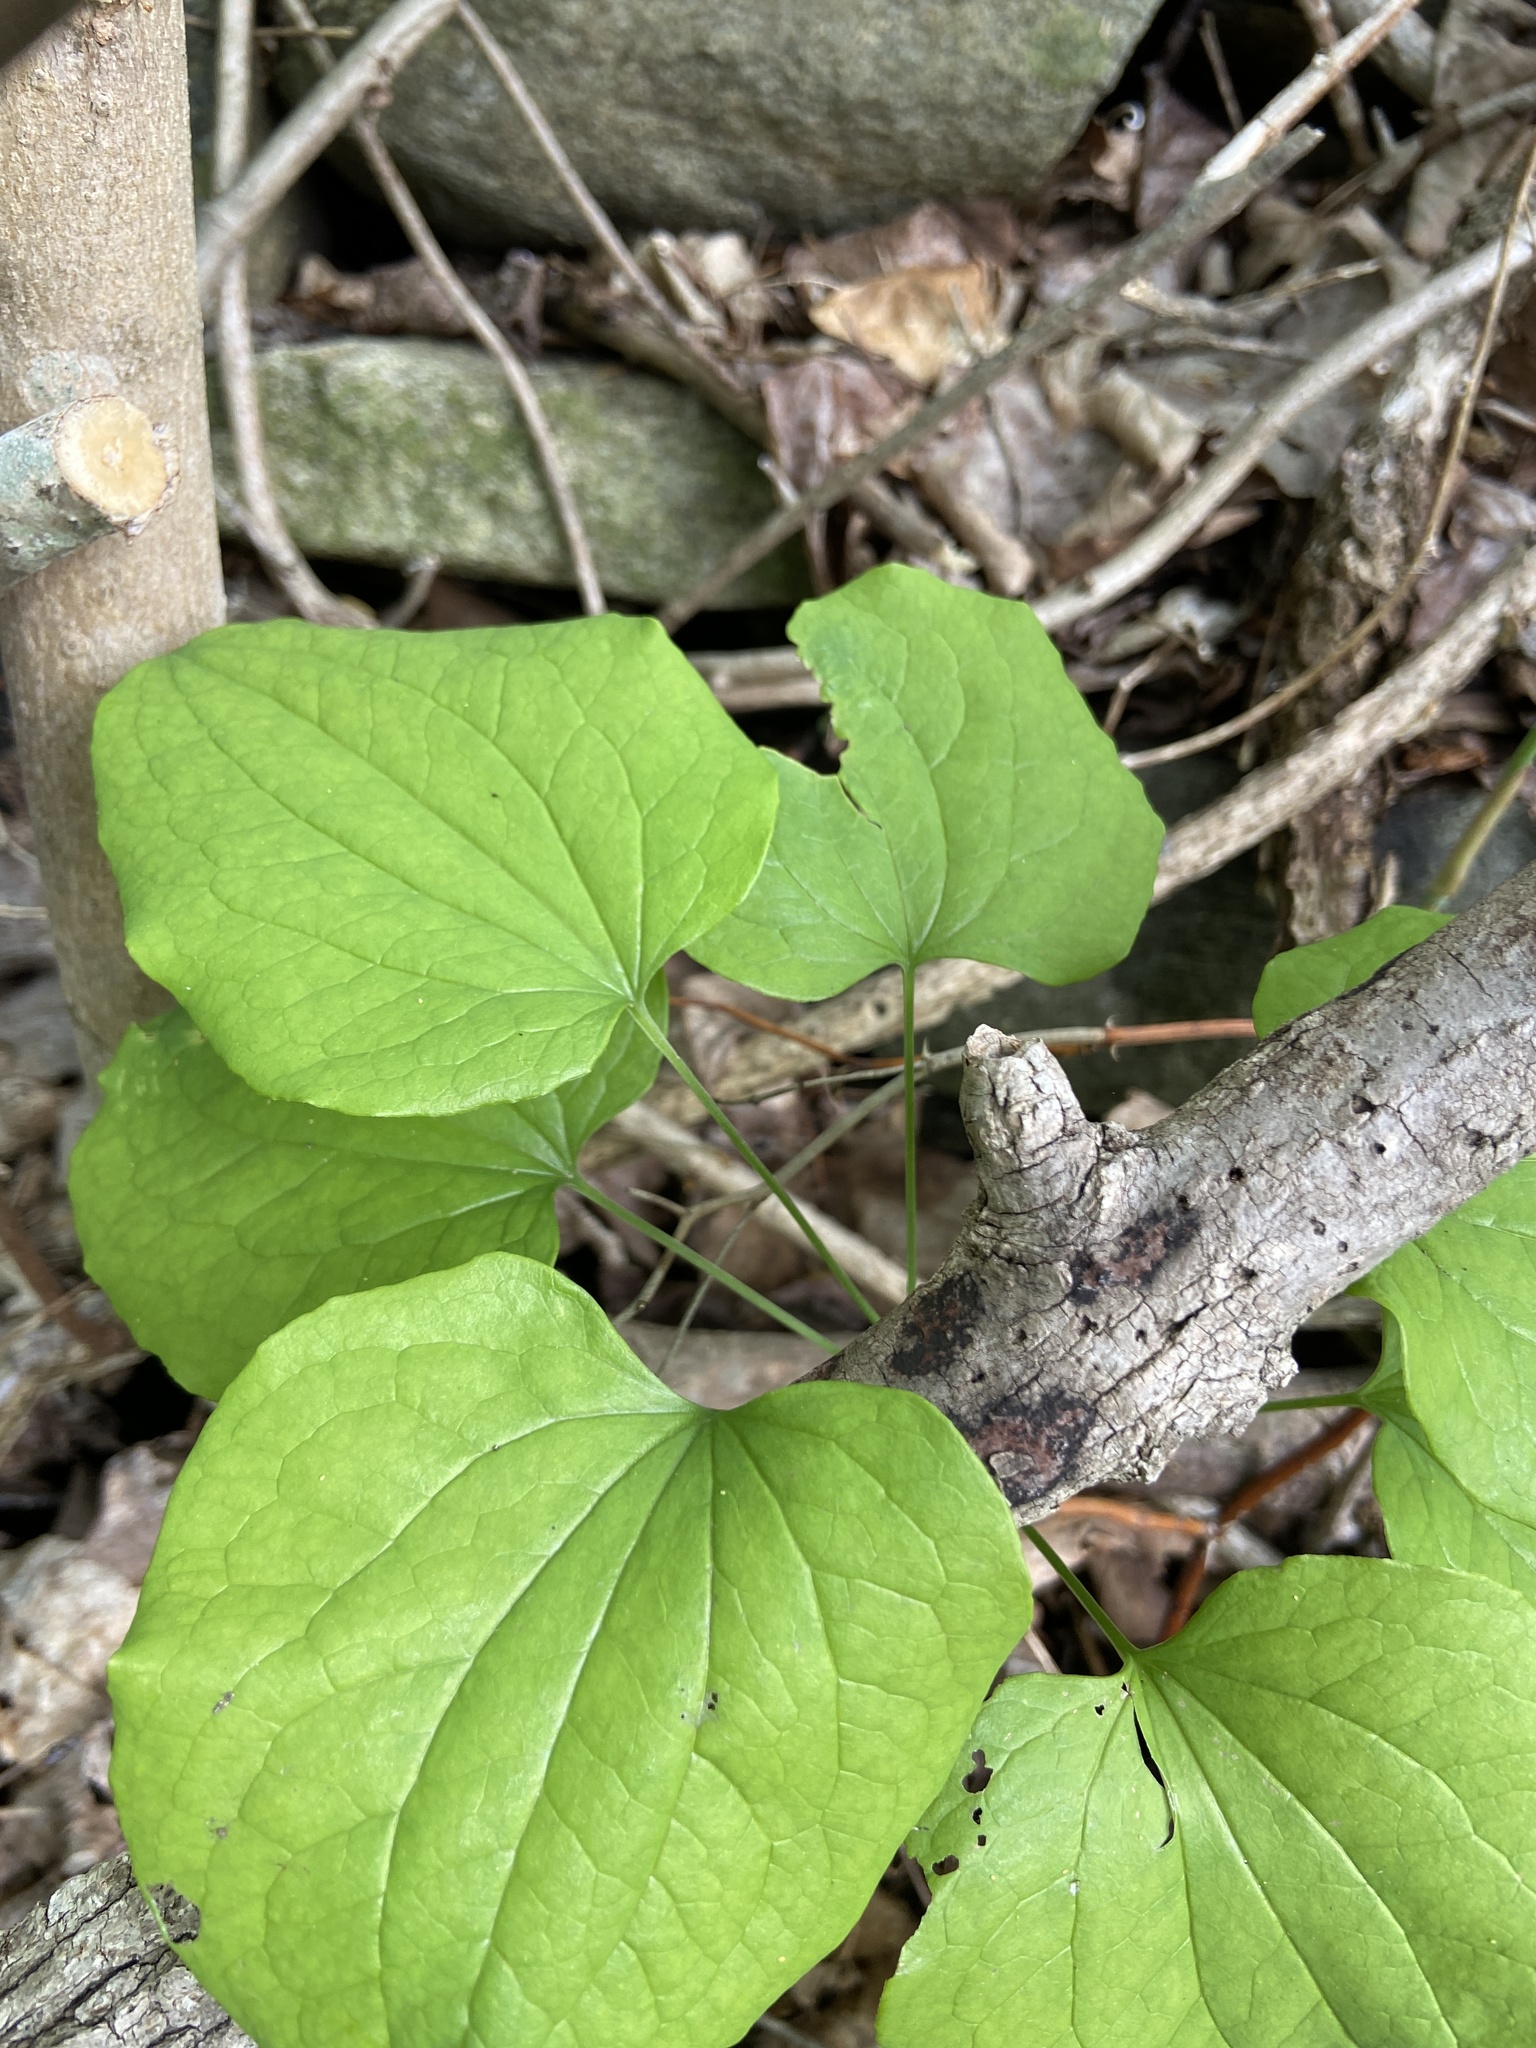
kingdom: Plantae
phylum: Tracheophyta
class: Liliopsida
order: Liliales
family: Smilacaceae
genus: Smilax
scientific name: Smilax herbacea
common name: Jacob's-ladder
